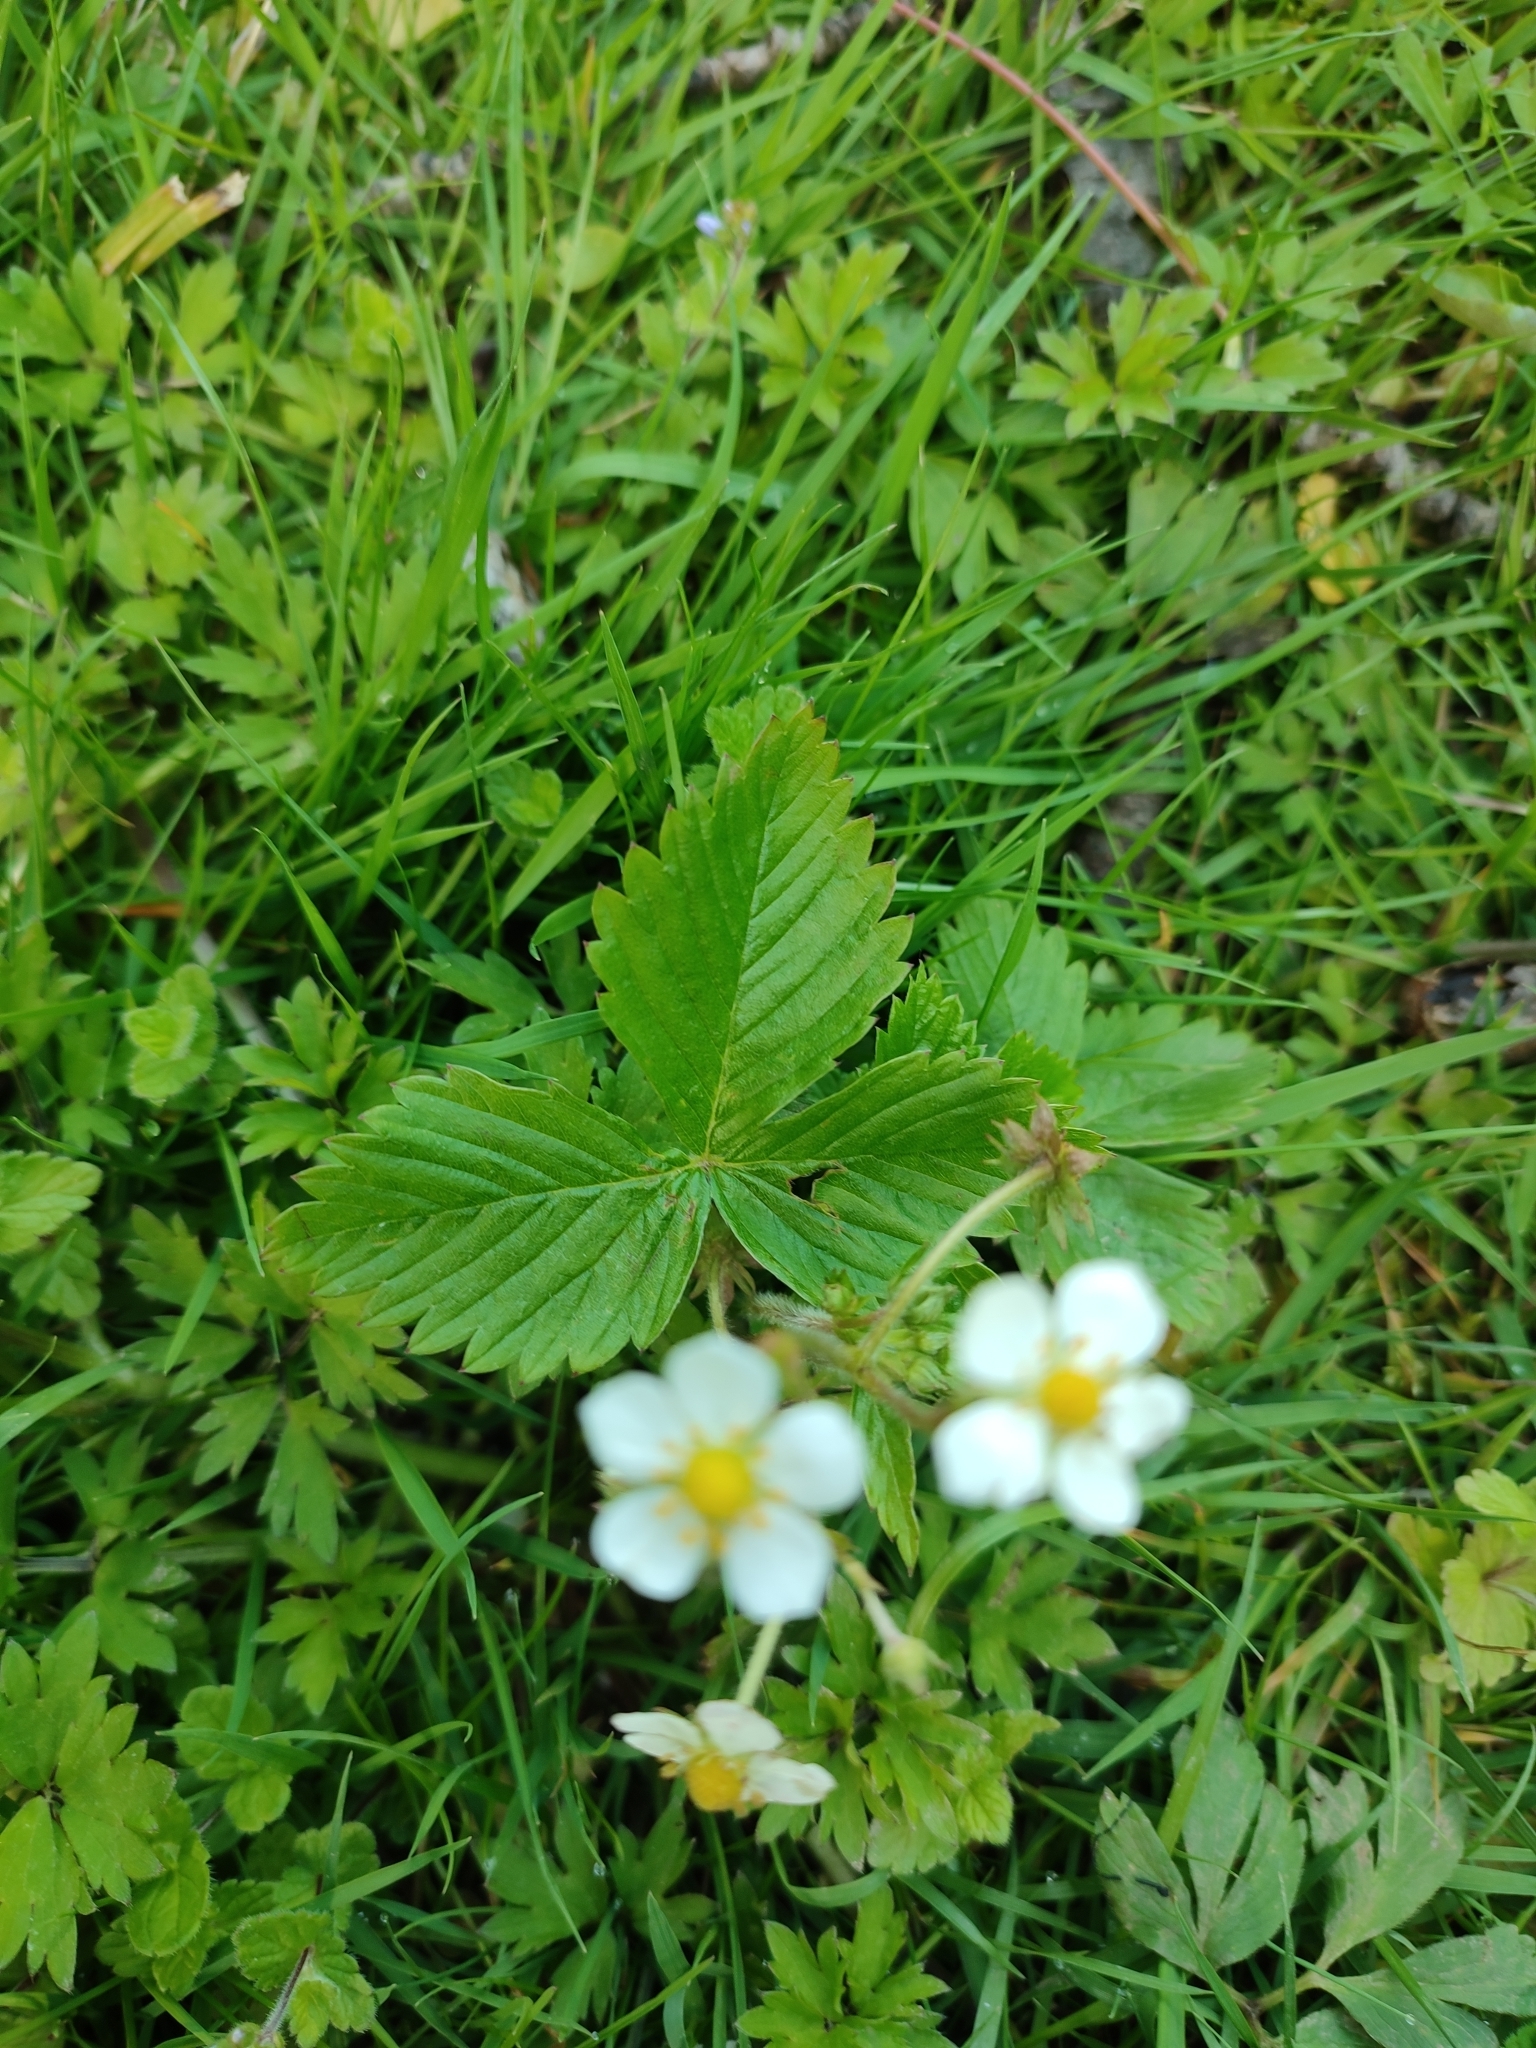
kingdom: Plantae
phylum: Tracheophyta
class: Magnoliopsida
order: Rosales
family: Rosaceae
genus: Fragaria
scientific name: Fragaria vesca
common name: Wild strawberry
